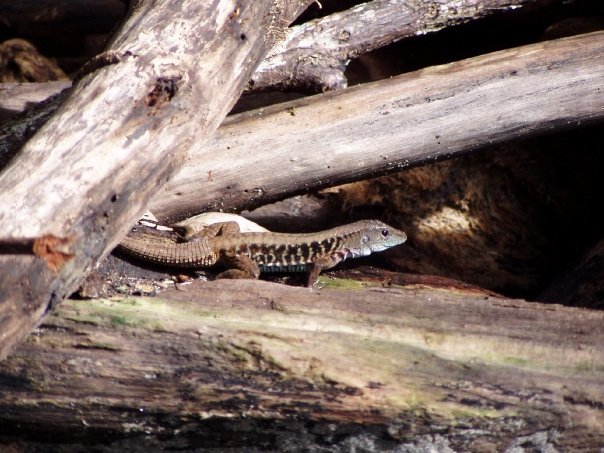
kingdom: Animalia
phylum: Chordata
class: Squamata
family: Teiidae
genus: Holcosus
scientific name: Holcosus leptophrys
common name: Delicate ameiva
